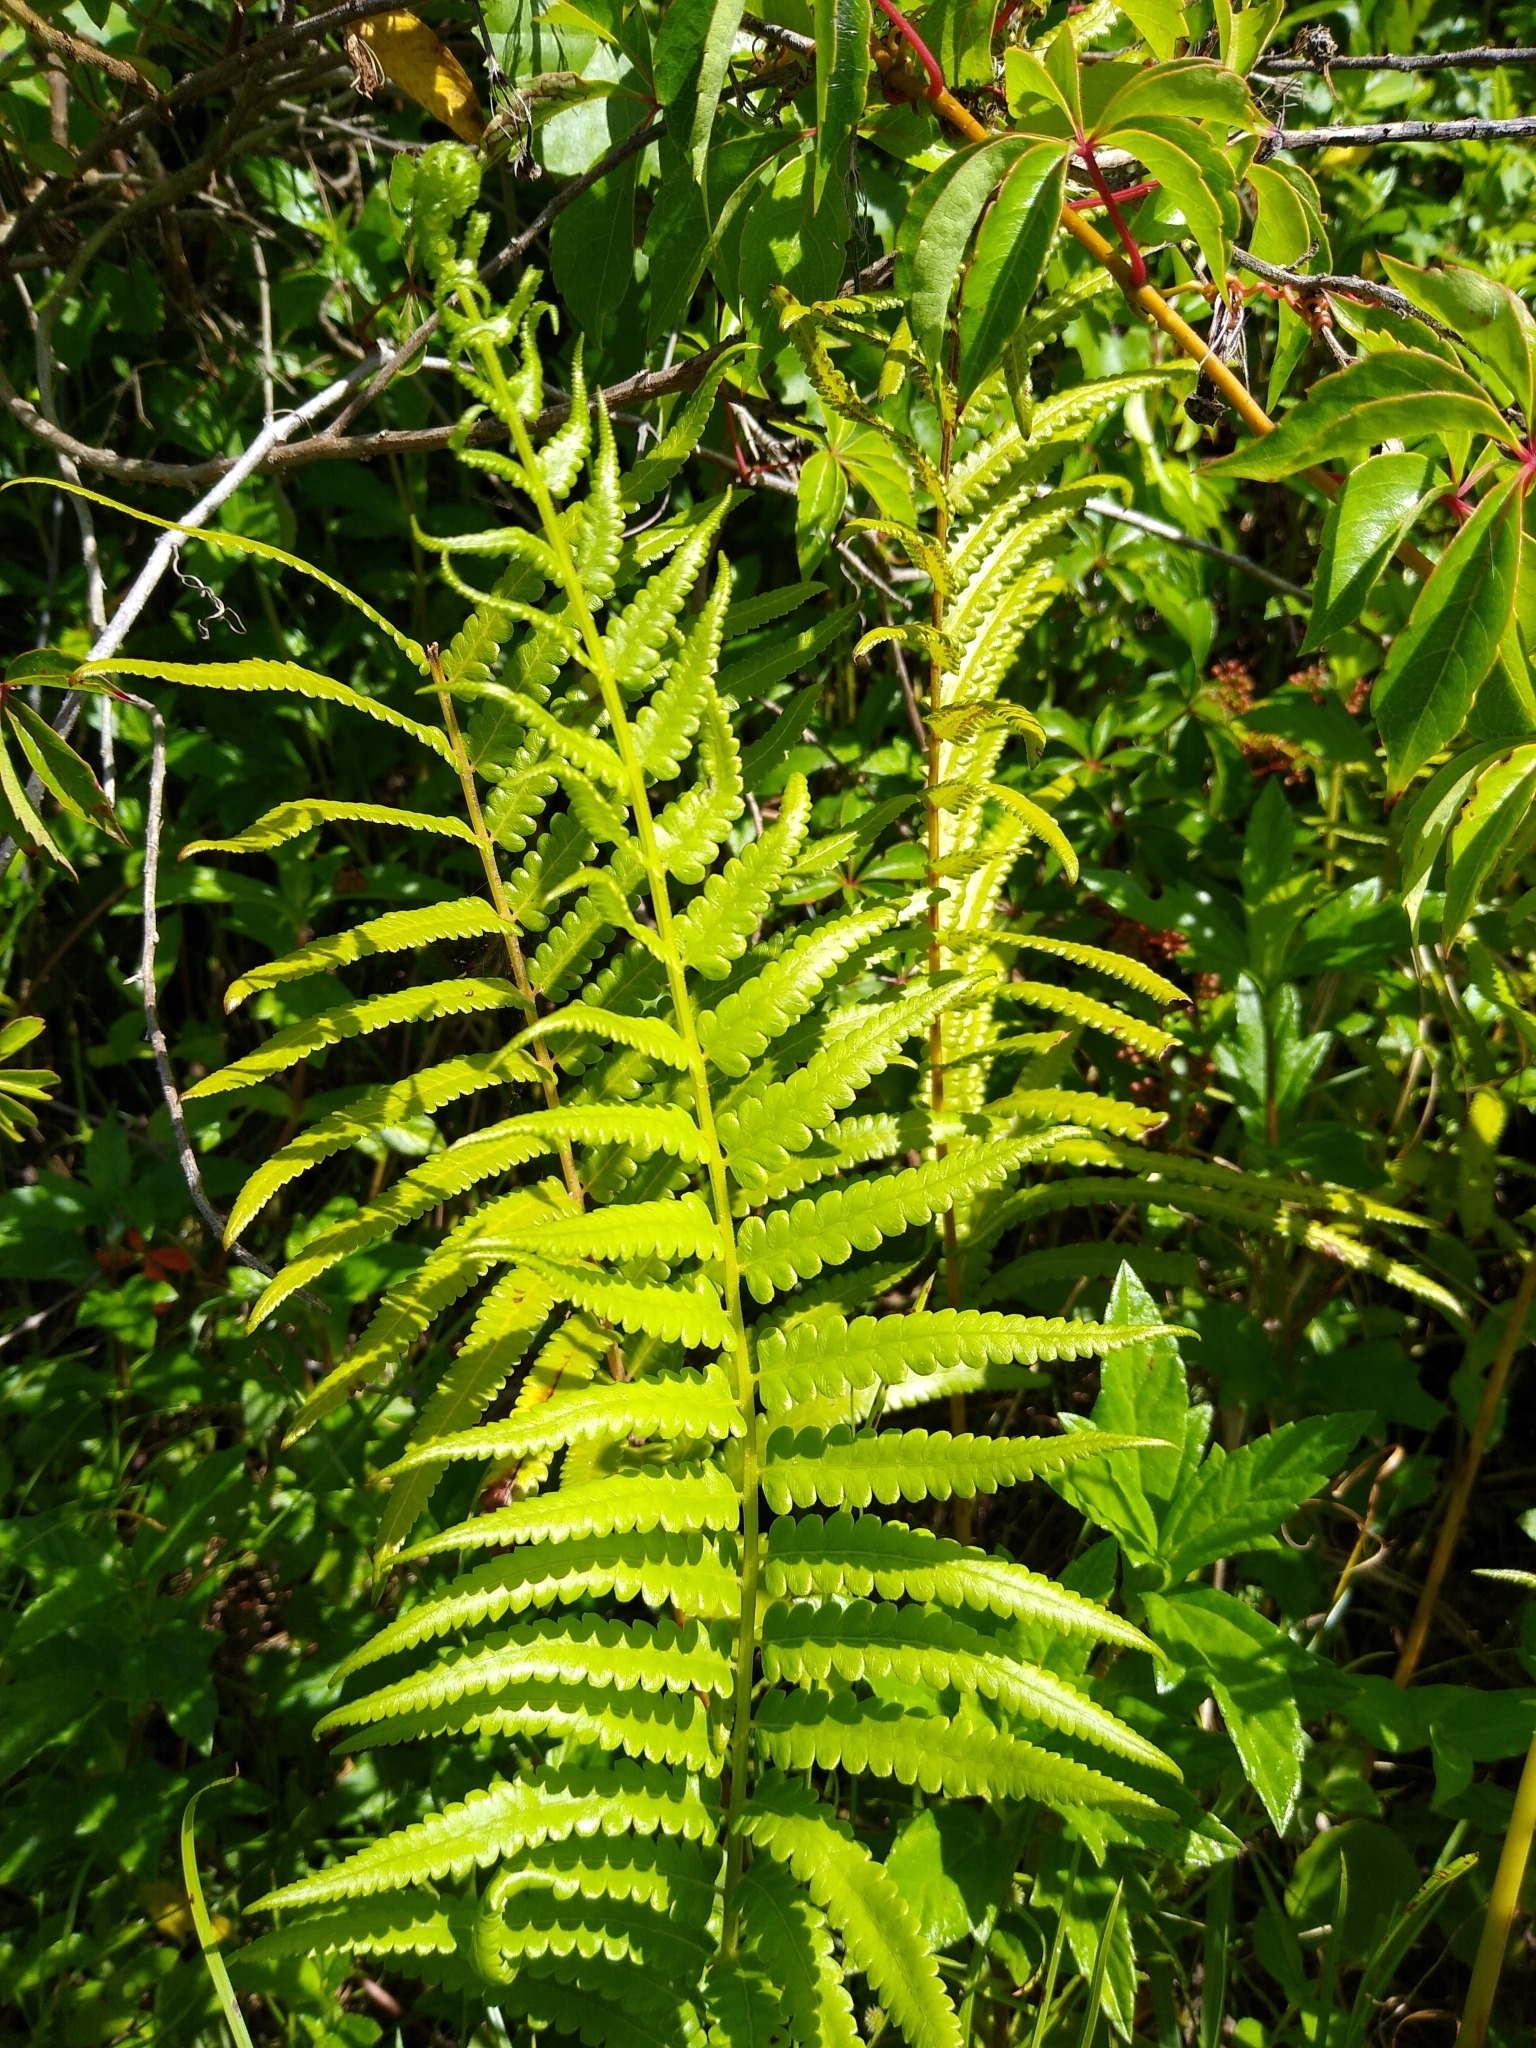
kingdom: Plantae
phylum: Tracheophyta
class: Polypodiopsida
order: Polypodiales
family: Thelypteridaceae
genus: Cyclosorus
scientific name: Cyclosorus interruptus
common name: Neke fern
